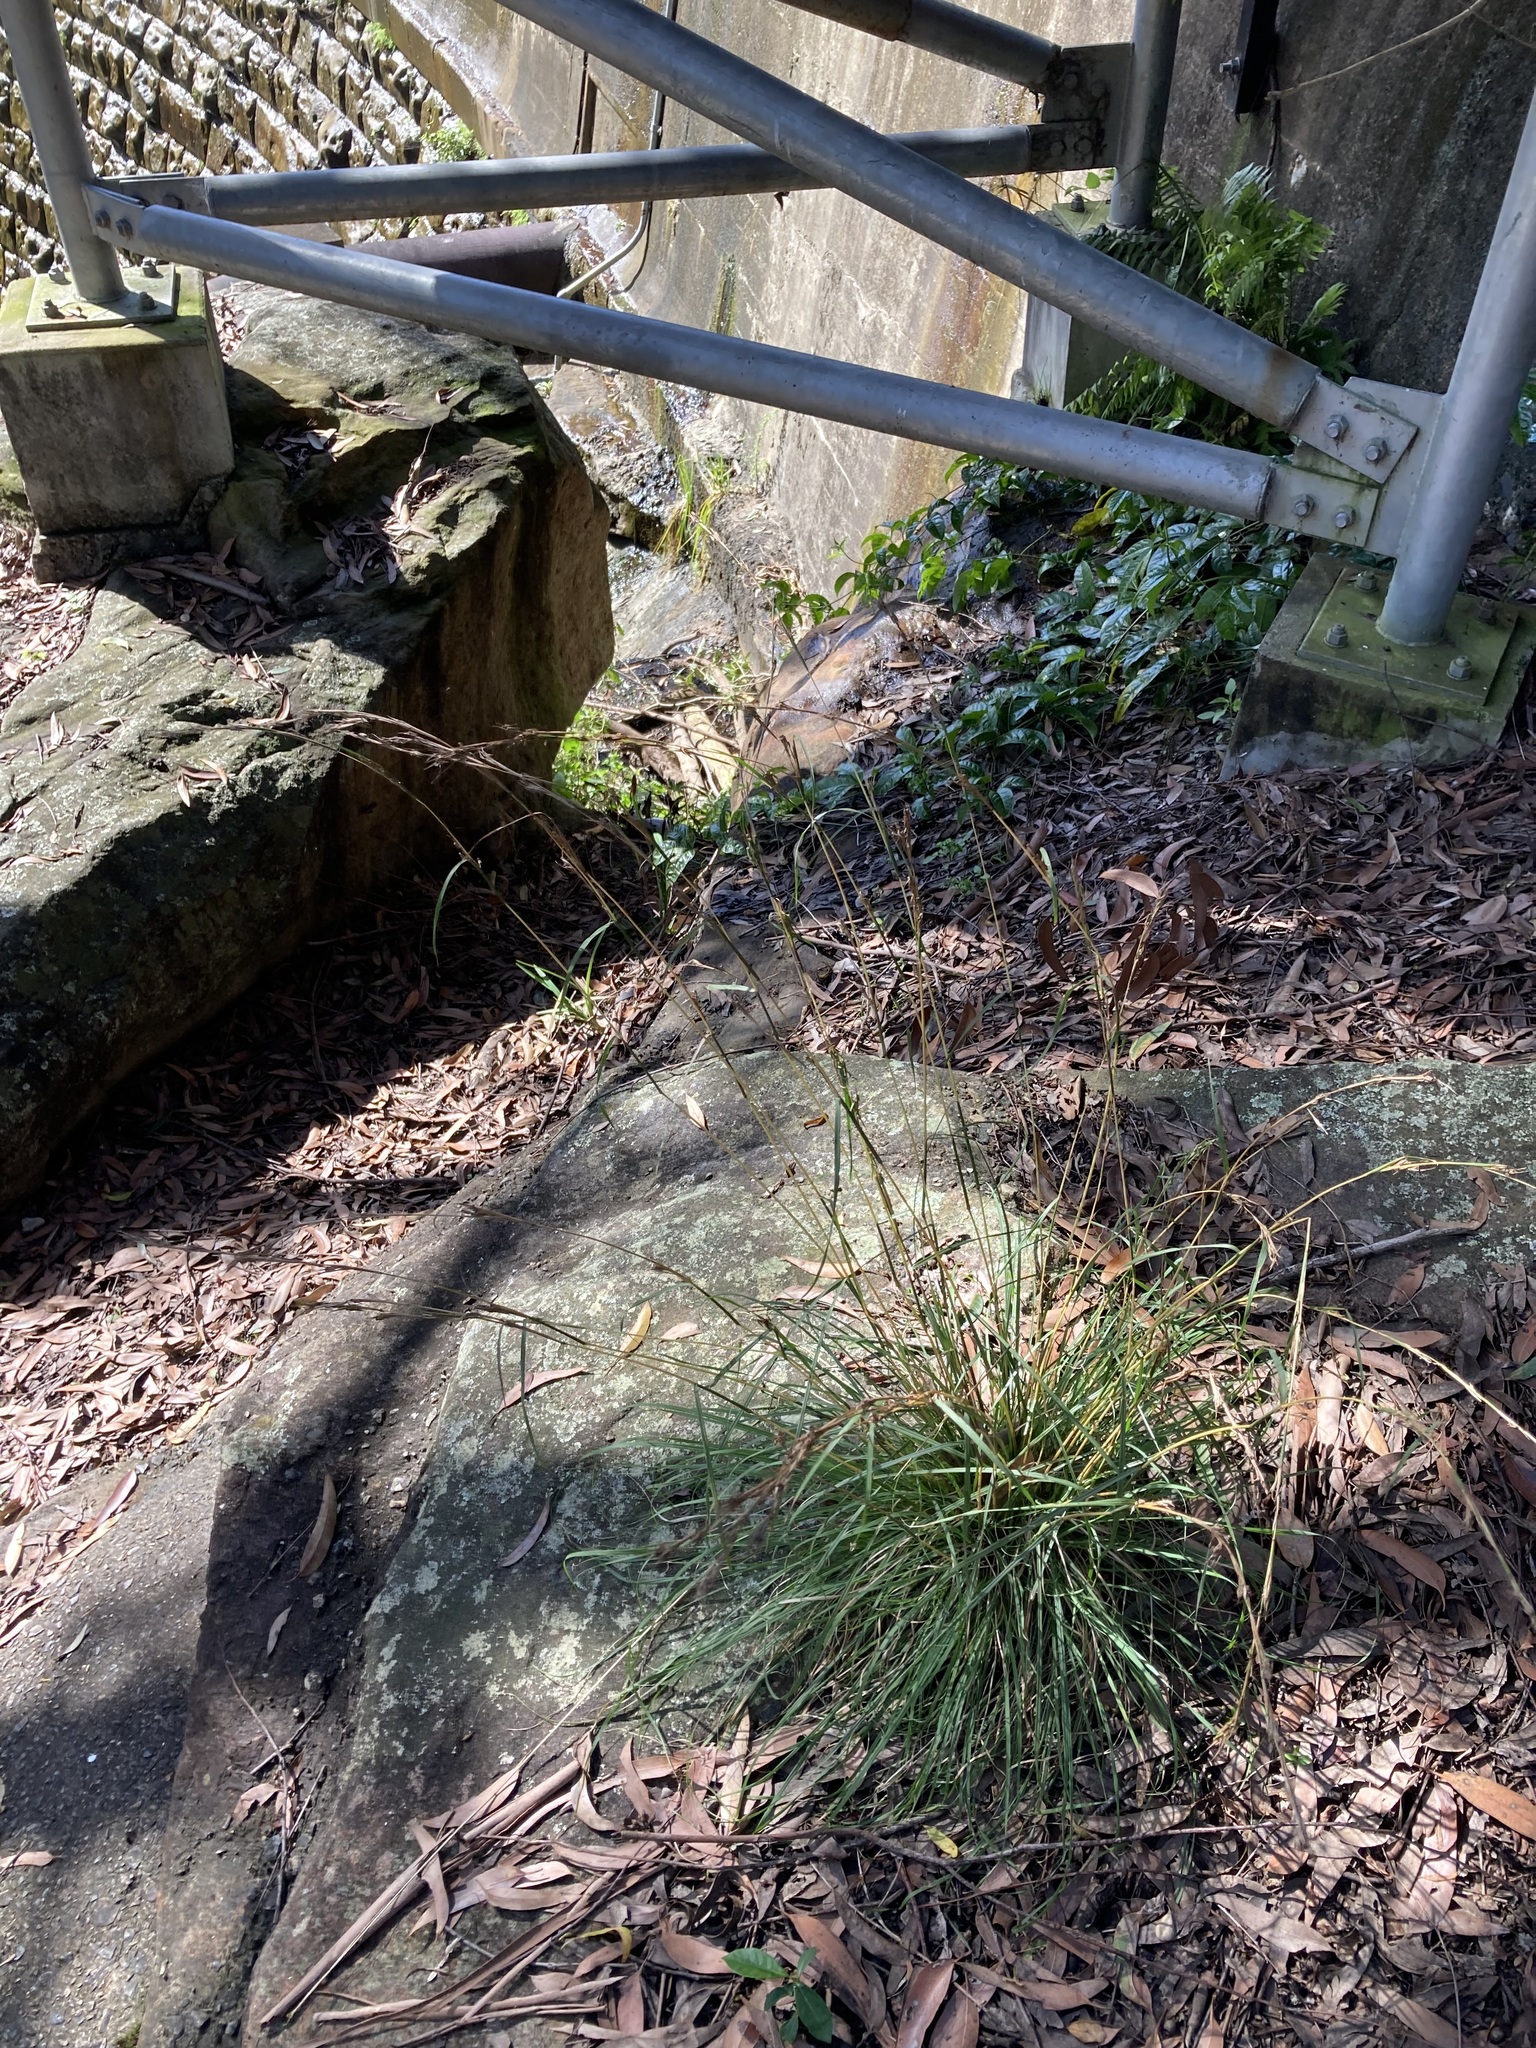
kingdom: Plantae
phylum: Tracheophyta
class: Liliopsida
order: Poales
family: Poaceae
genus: Cymbopogon
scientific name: Cymbopogon refractus
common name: Barbwire grass
